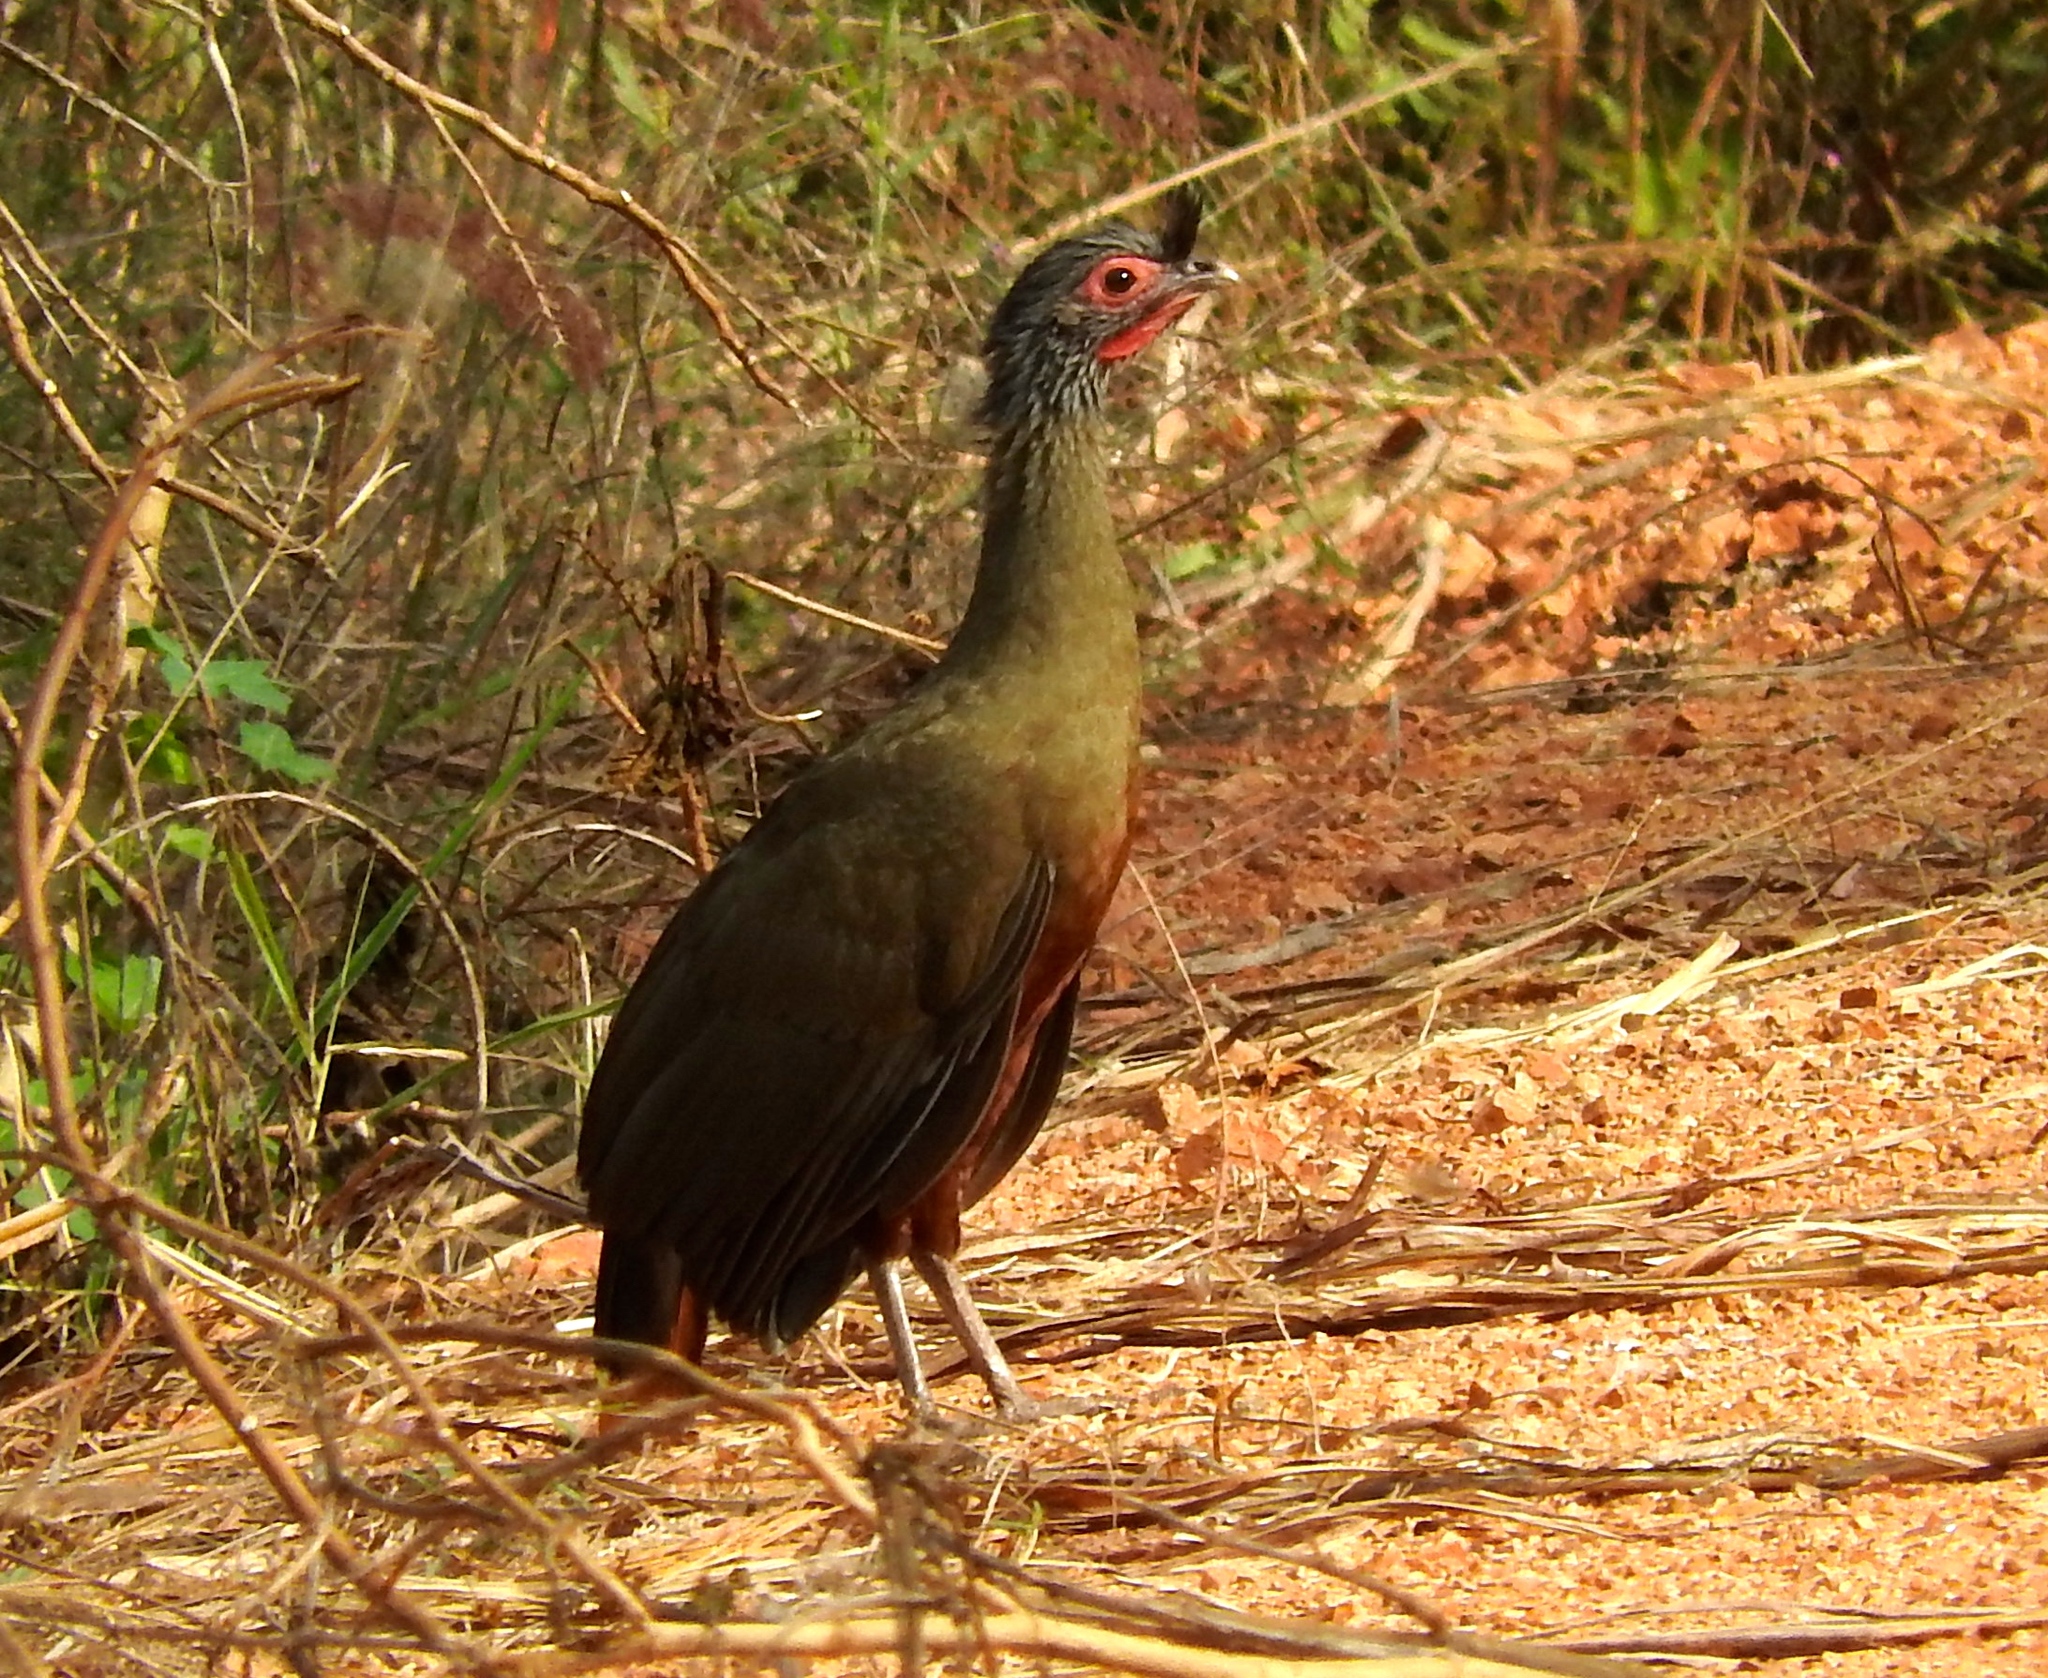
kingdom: Animalia
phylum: Chordata
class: Aves
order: Galliformes
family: Cracidae
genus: Ortalis
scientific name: Ortalis wagleri
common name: Rufous-bellied chachalaca
